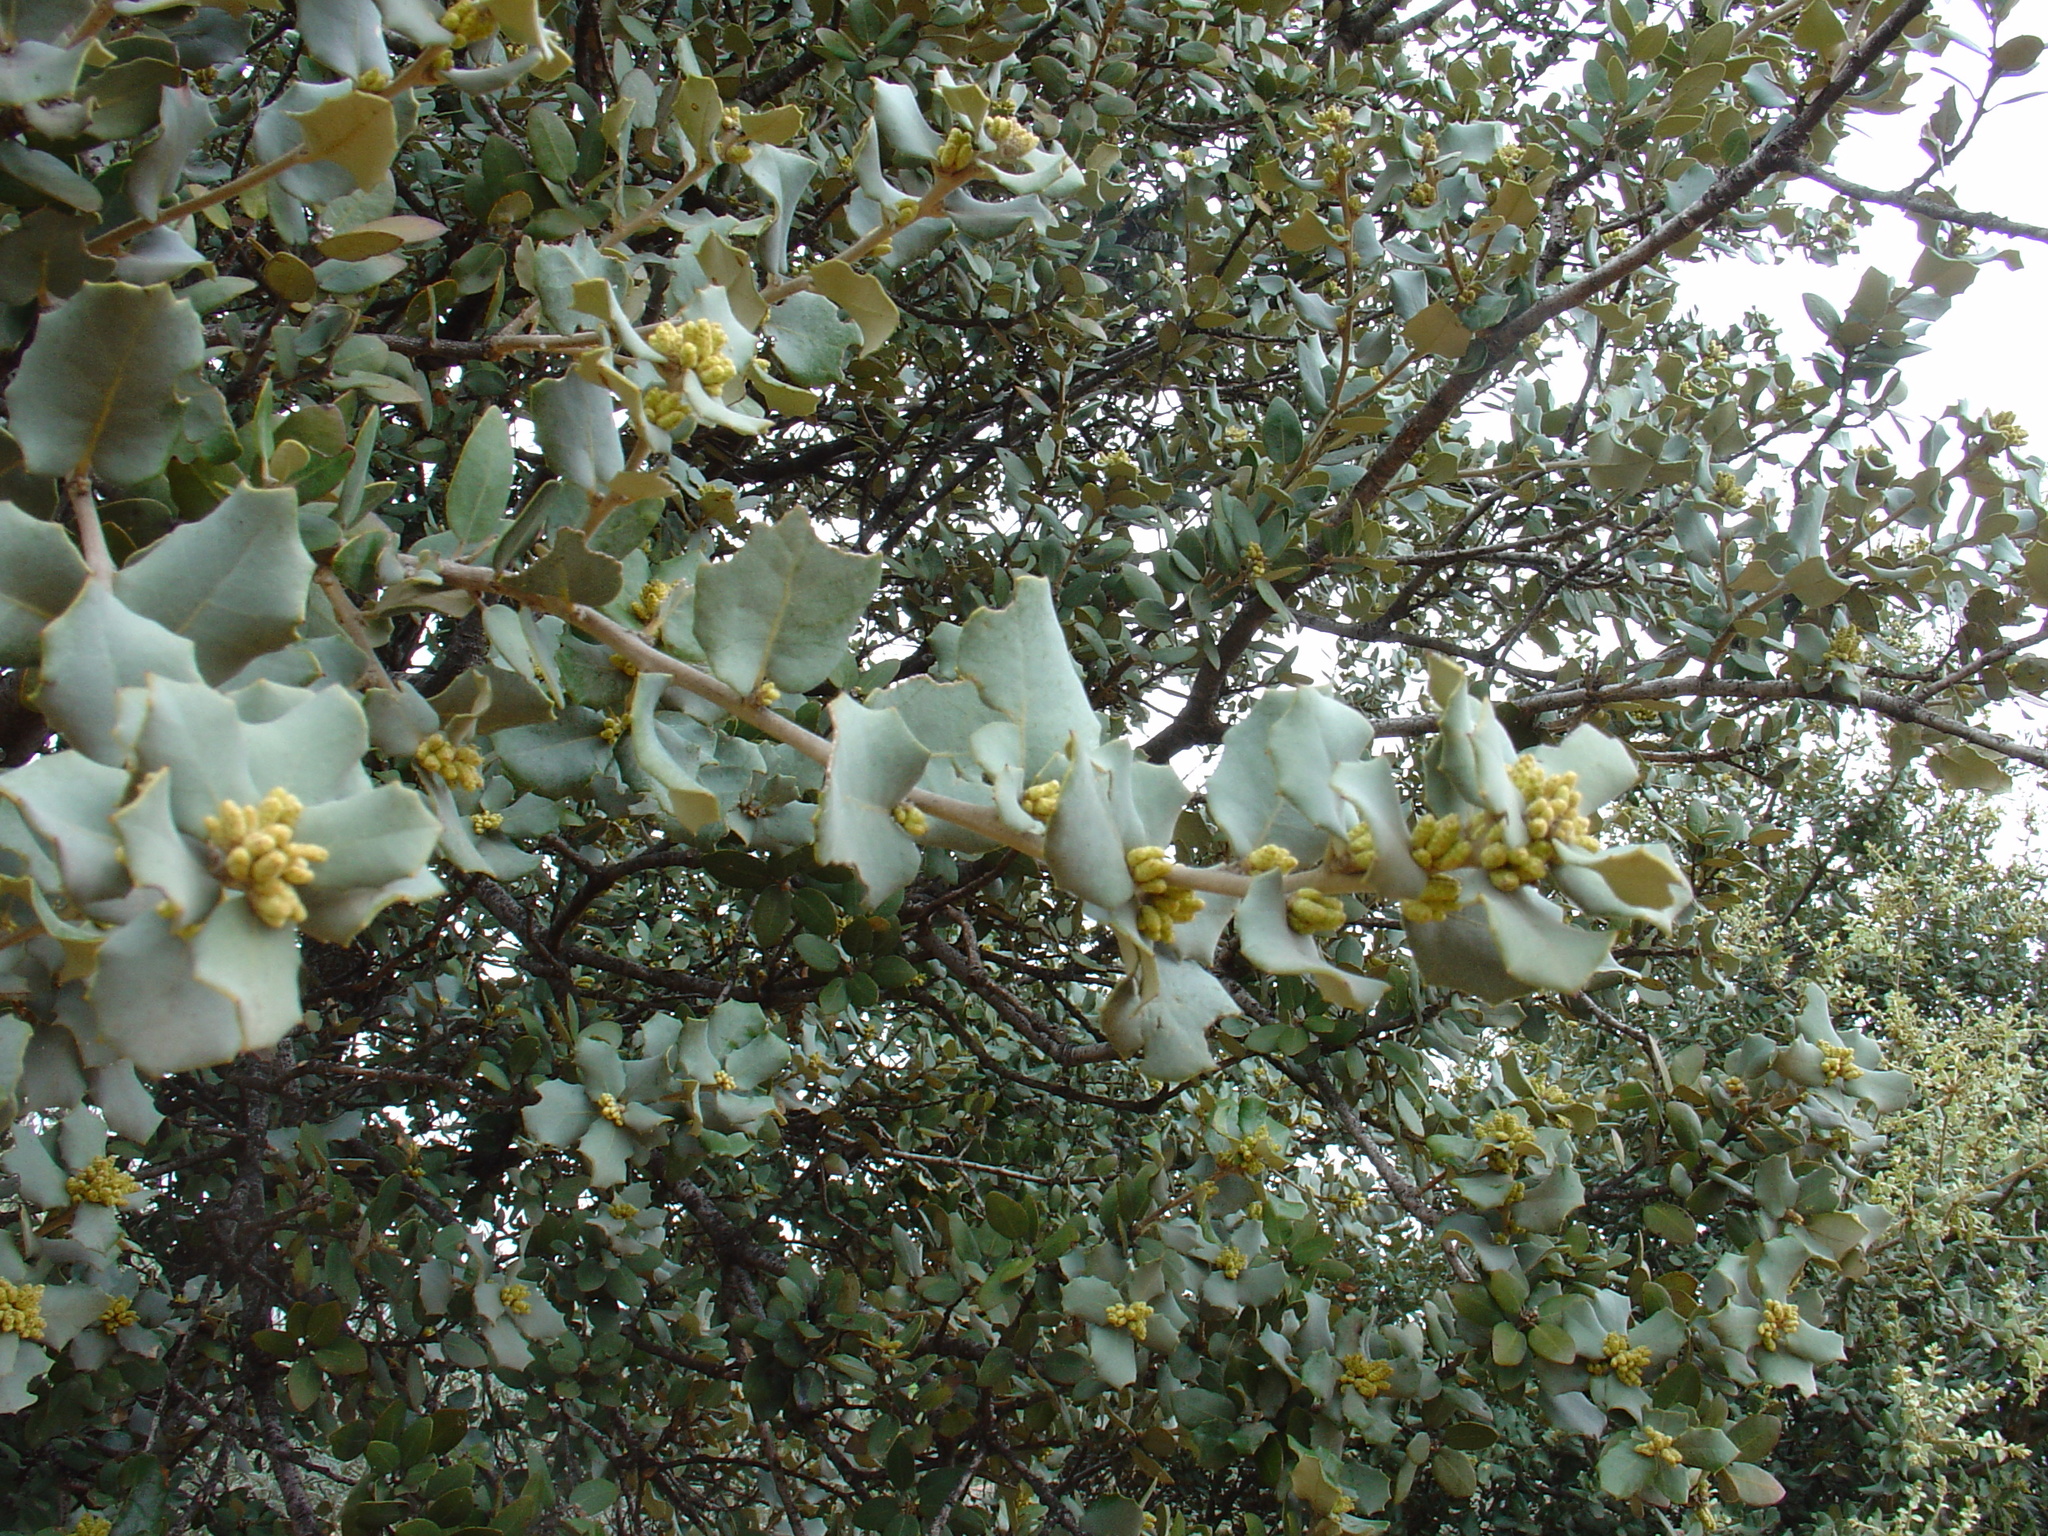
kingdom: Plantae
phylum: Tracheophyta
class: Magnoliopsida
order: Fagales
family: Fagaceae
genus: Quercus
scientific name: Quercus rotundifolia
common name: Holm oak
